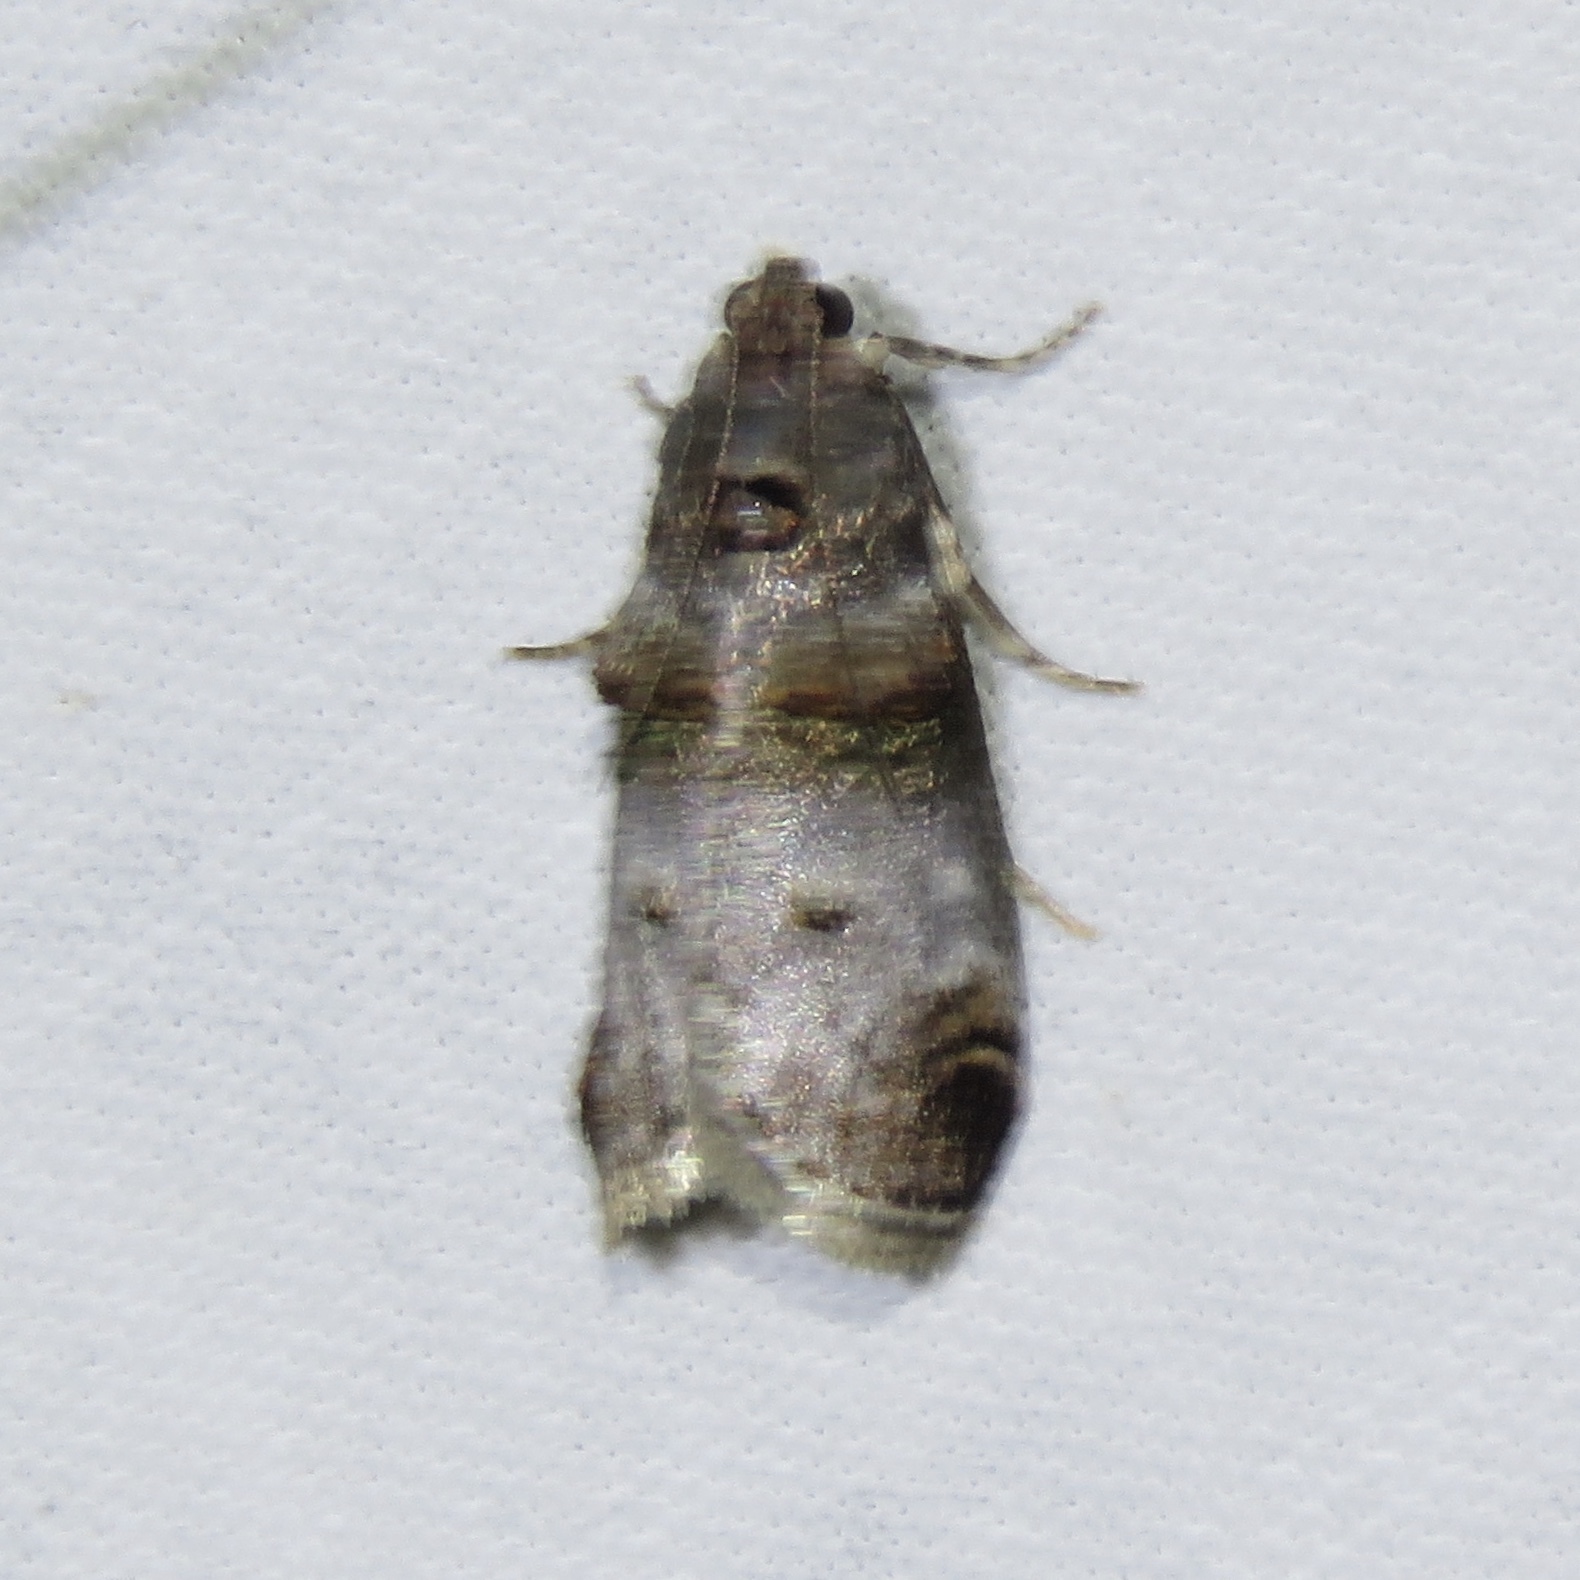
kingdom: Animalia
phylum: Arthropoda
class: Insecta
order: Lepidoptera
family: Pyralidae
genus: Oneida
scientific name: Oneida lunulalis
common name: Orange-tufted oneida moth
